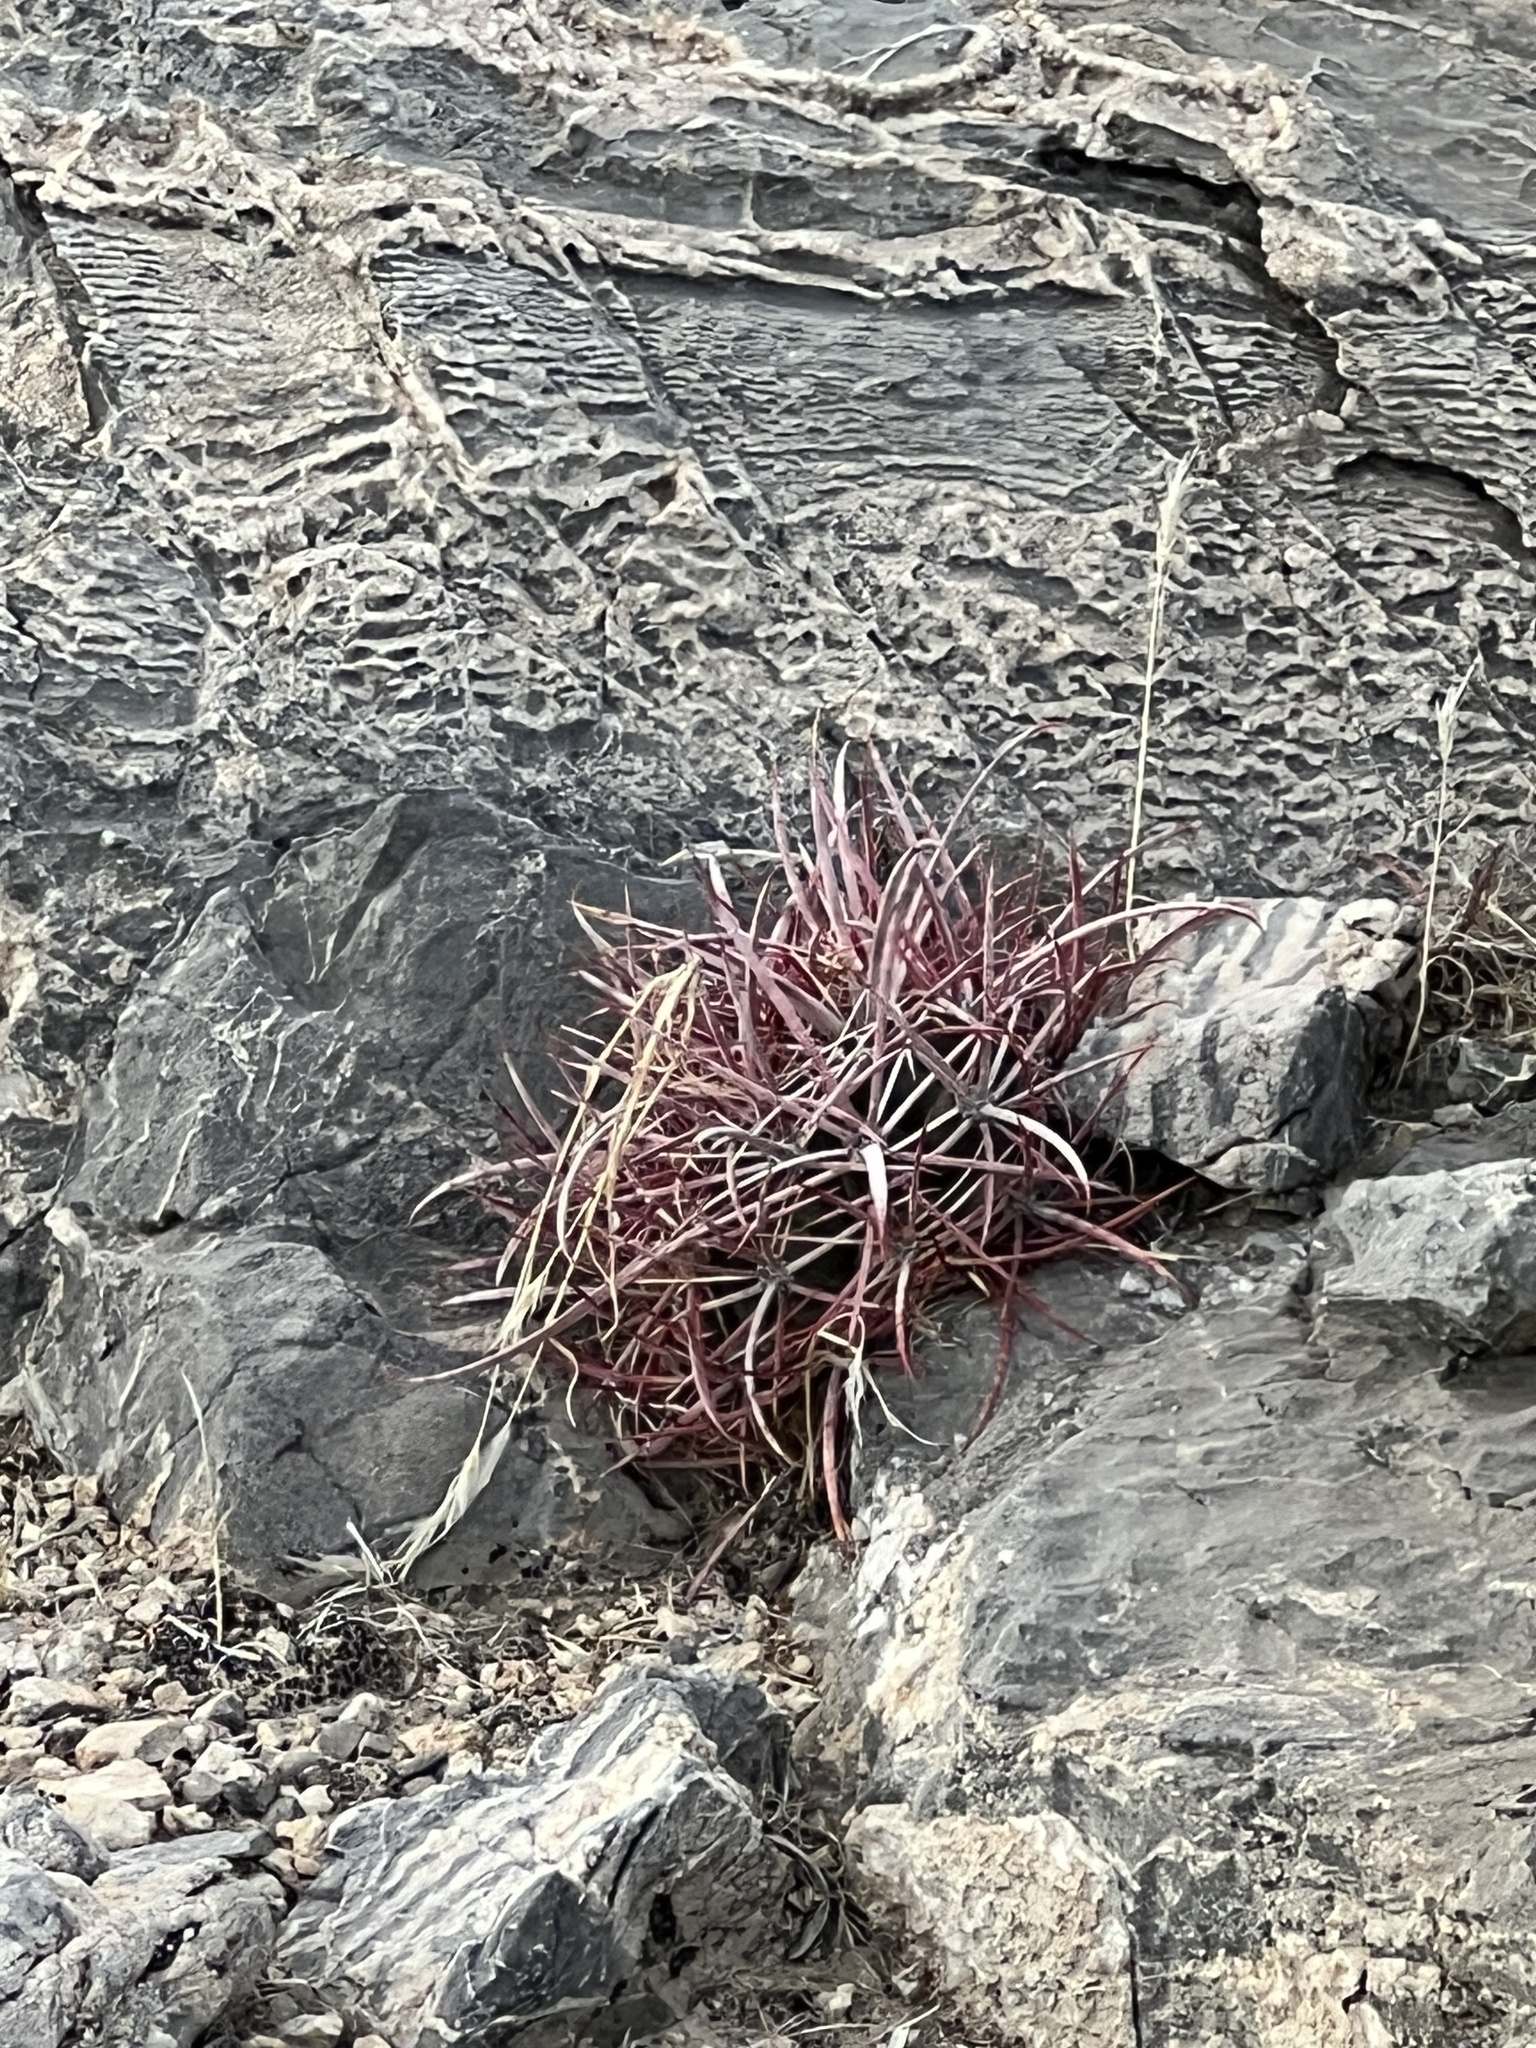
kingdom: Plantae
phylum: Tracheophyta
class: Magnoliopsida
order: Caryophyllales
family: Cactaceae
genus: Ferocactus
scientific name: Ferocactus cylindraceus
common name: California barrel cactus
